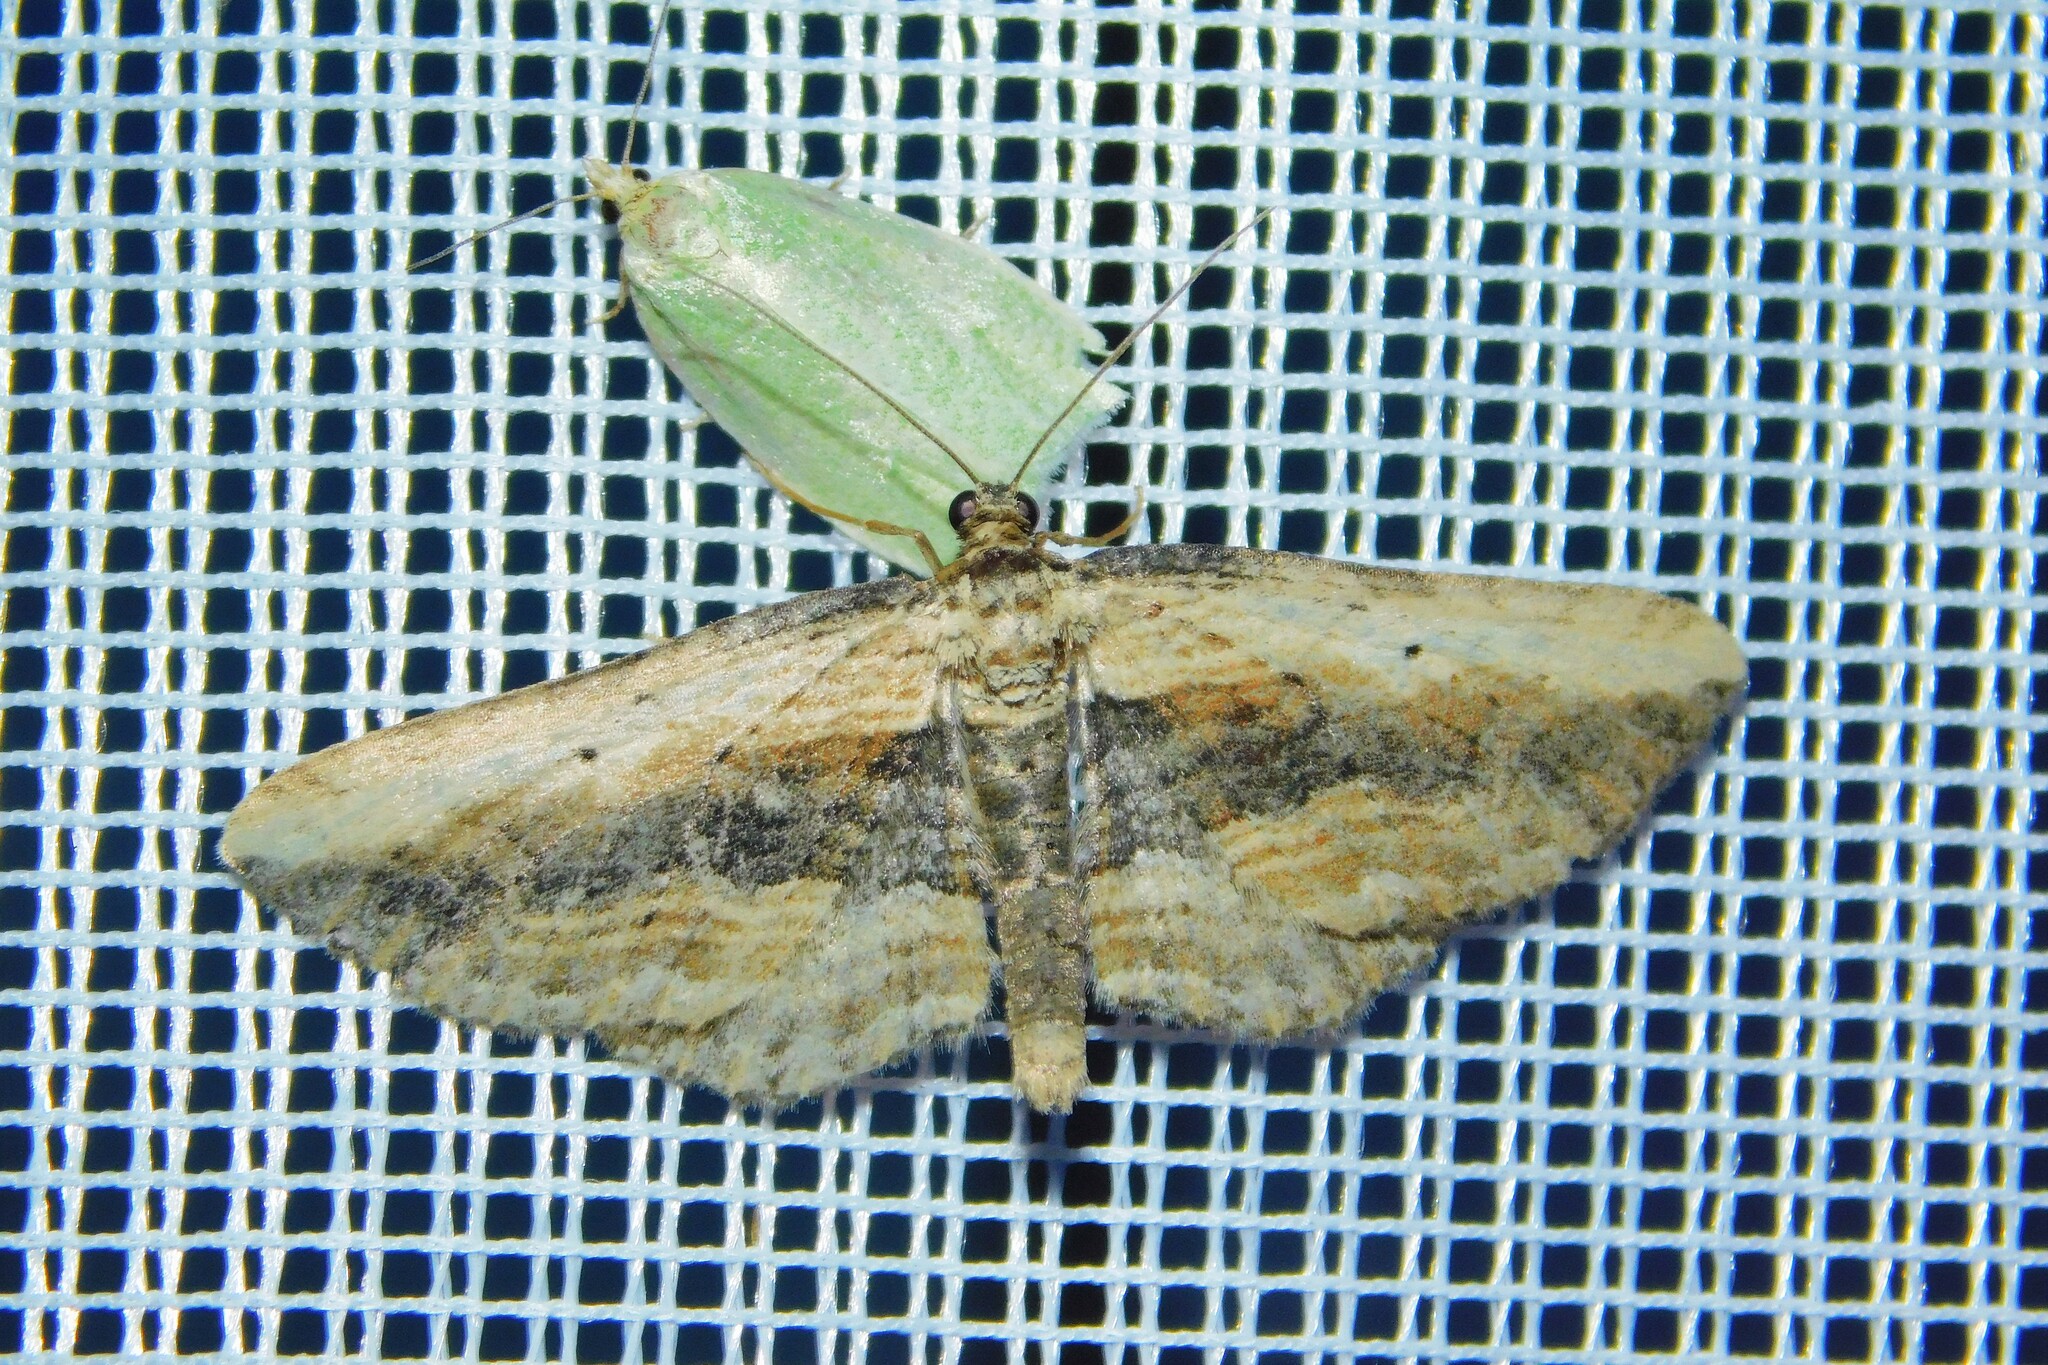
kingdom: Animalia
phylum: Arthropoda
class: Insecta
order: Lepidoptera
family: Geometridae
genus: Horisme
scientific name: Horisme vitalbata
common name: Small waved umber
